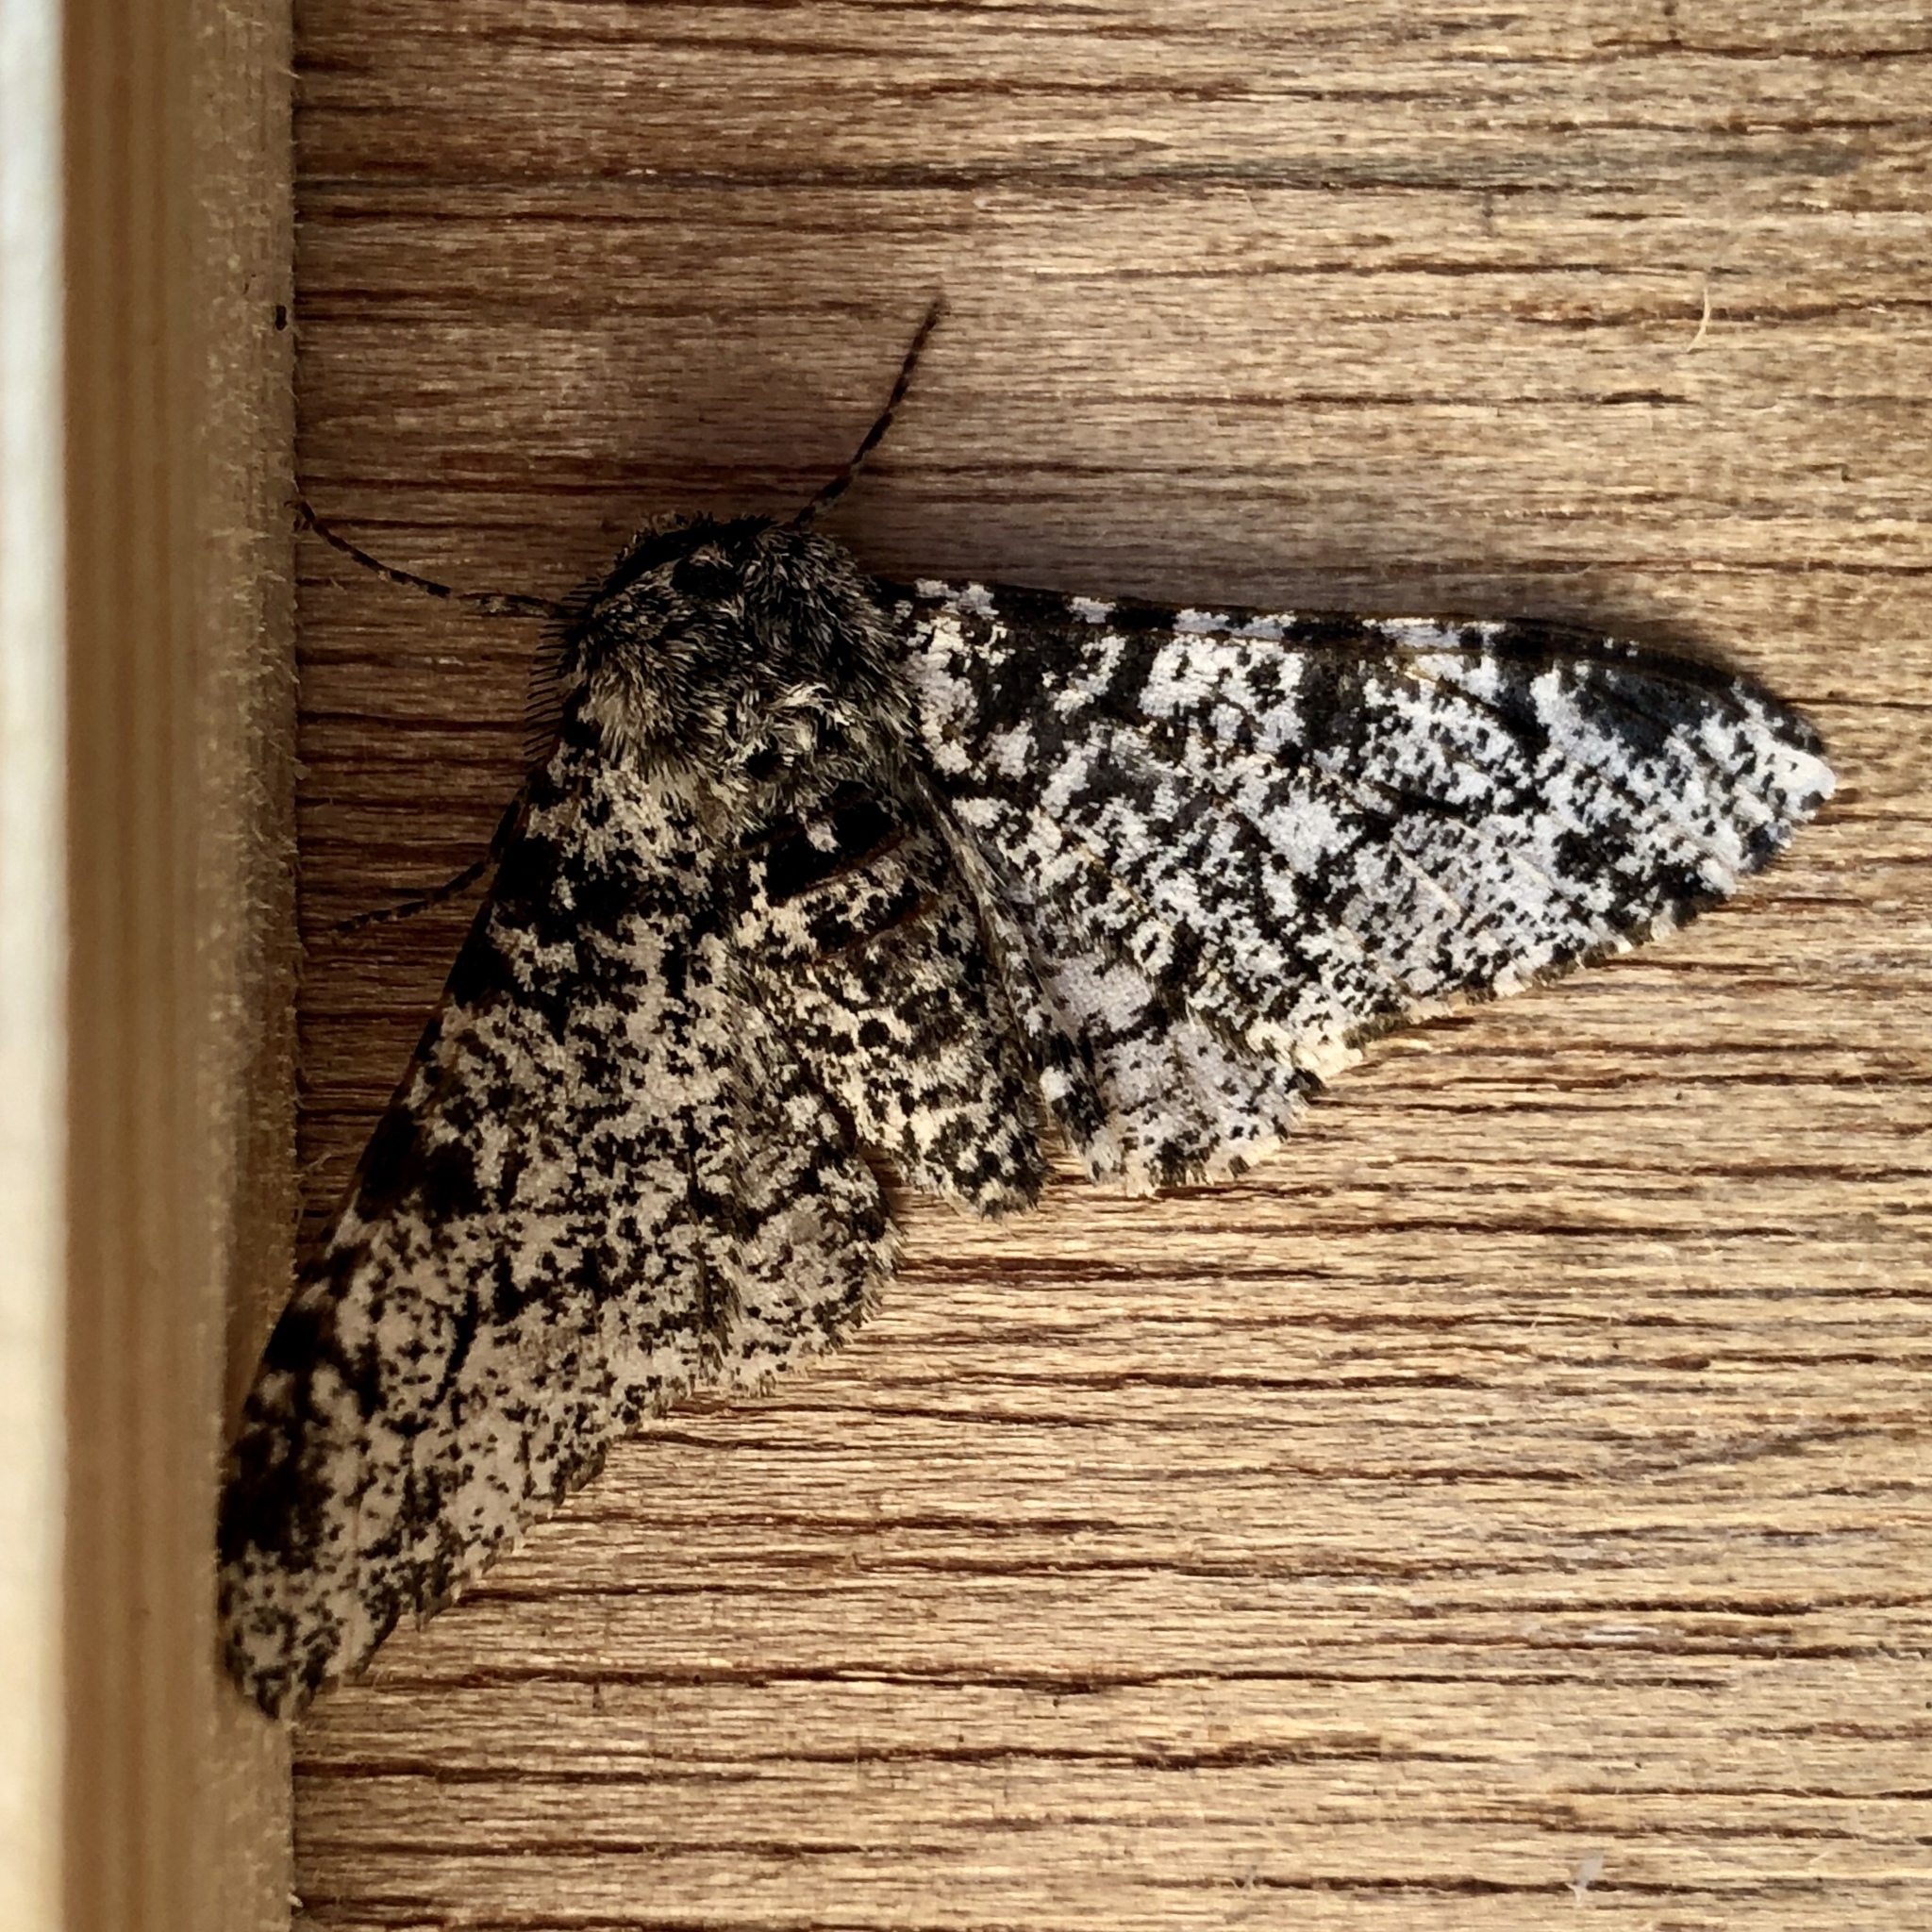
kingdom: Animalia
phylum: Arthropoda
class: Insecta
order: Lepidoptera
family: Geometridae
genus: Biston
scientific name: Biston betularia
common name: Peppered moth
